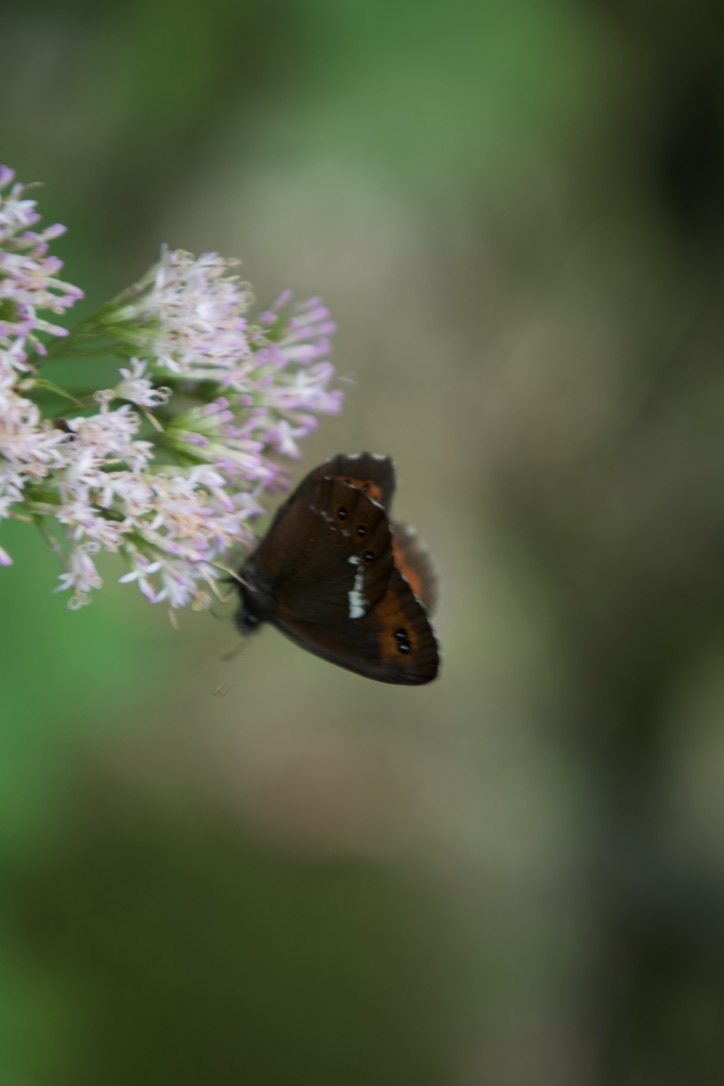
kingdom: Animalia
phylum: Arthropoda
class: Insecta
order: Lepidoptera
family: Nymphalidae
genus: Erebia
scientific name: Erebia ligea
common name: Arran brown
